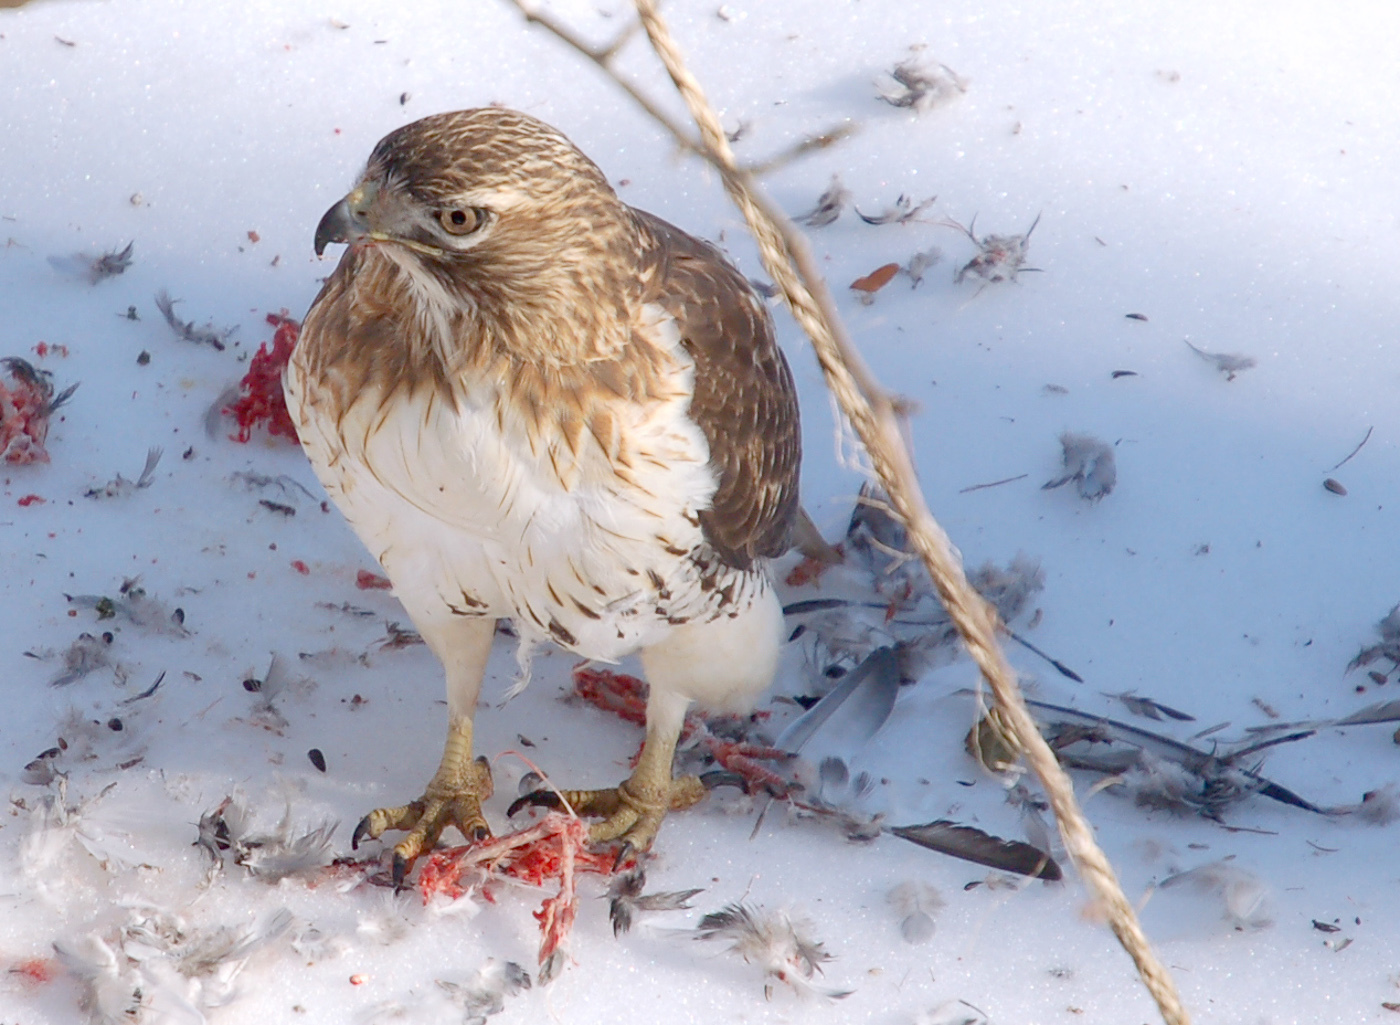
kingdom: Animalia
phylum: Chordata
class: Aves
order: Accipitriformes
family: Accipitridae
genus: Buteo
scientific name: Buteo jamaicensis
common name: Red-tailed hawk
